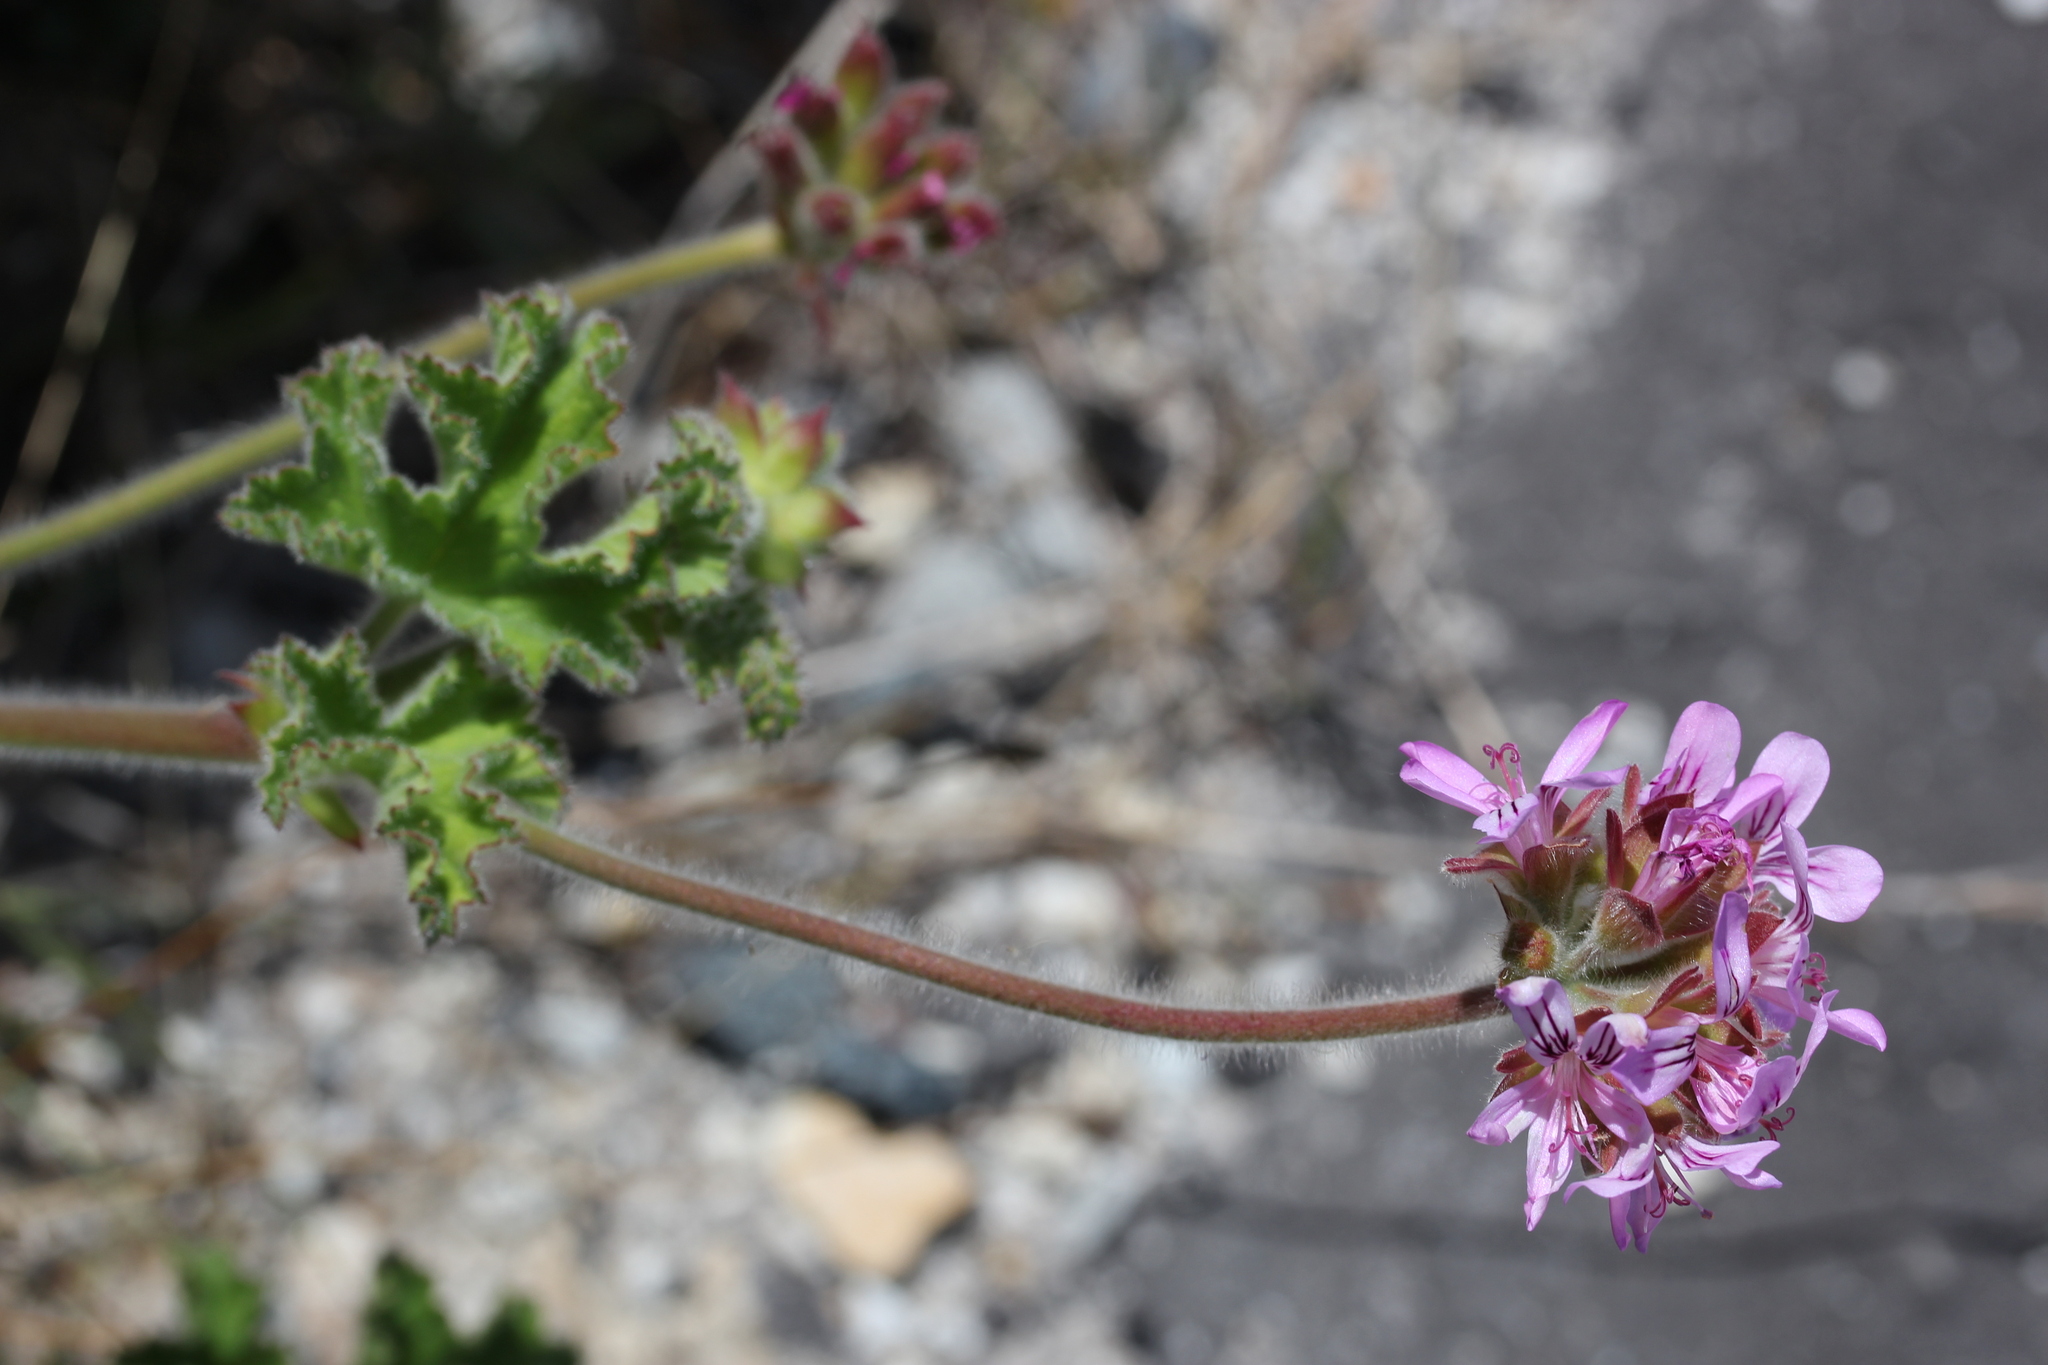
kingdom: Plantae
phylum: Tracheophyta
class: Magnoliopsida
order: Geraniales
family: Geraniaceae
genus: Pelargonium
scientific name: Pelargonium capitatum
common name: Rose scented geranium
